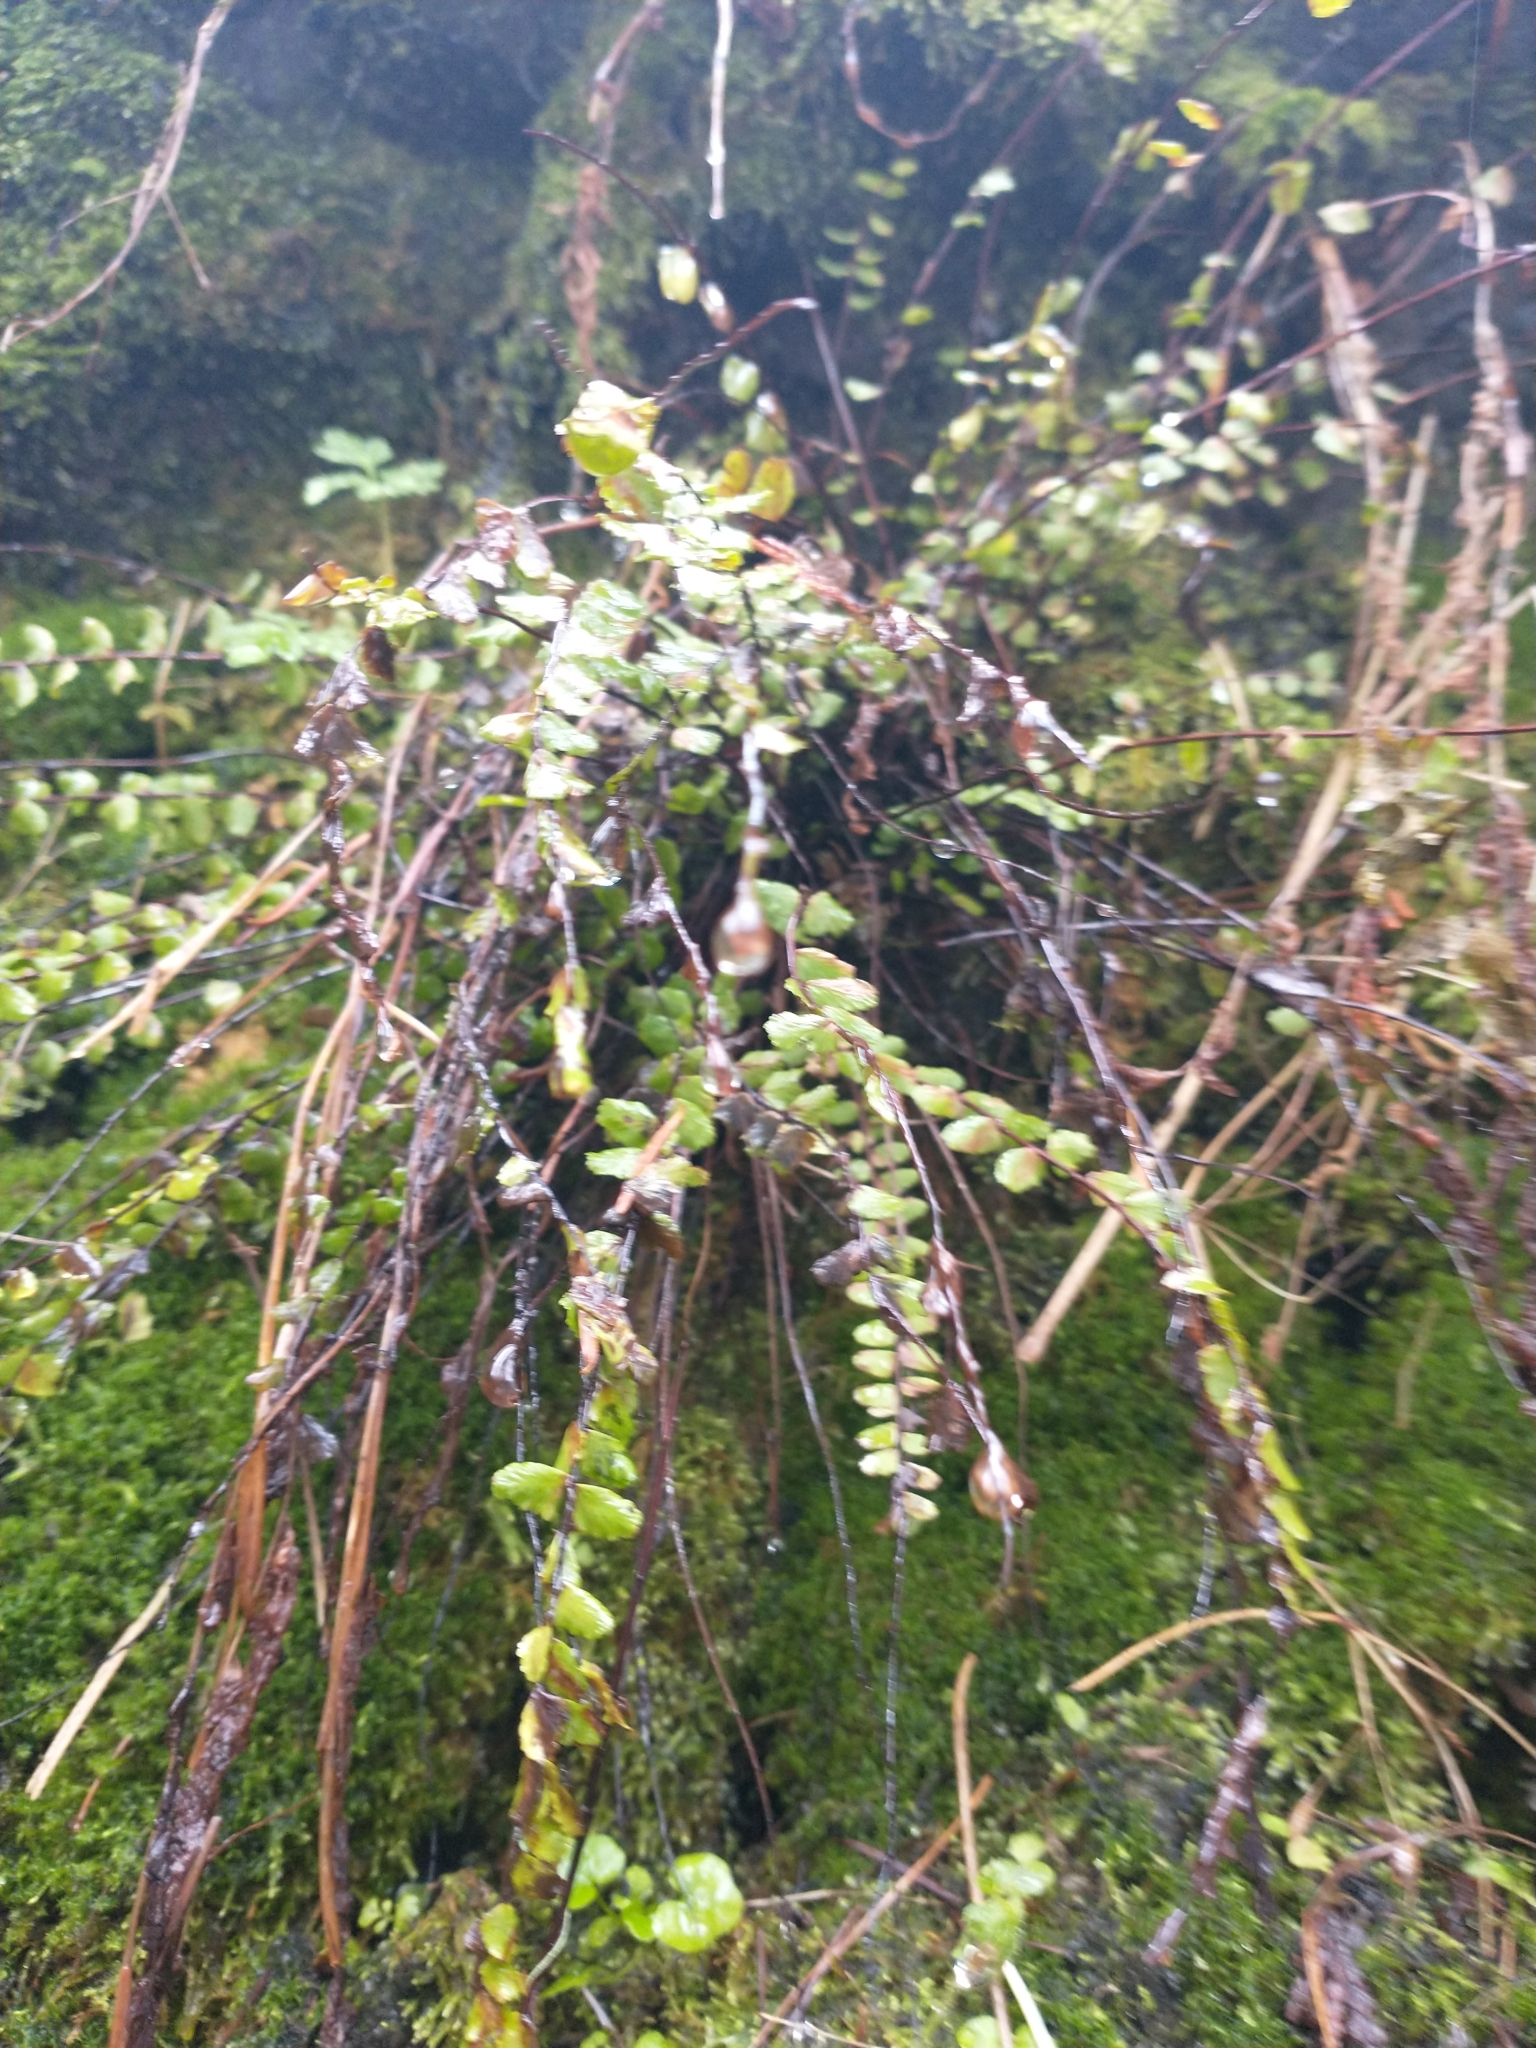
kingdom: Plantae
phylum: Tracheophyta
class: Polypodiopsida
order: Polypodiales
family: Aspleniaceae
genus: Asplenium
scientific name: Asplenium trichomanes
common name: Maidenhair spleenwort
